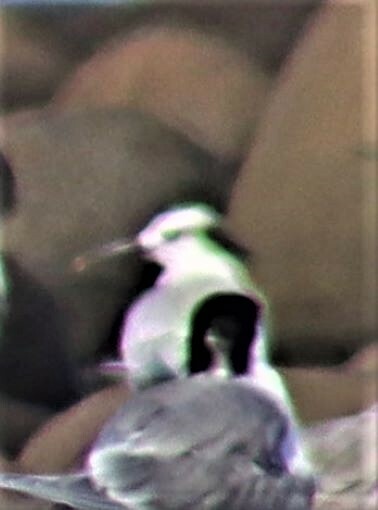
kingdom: Animalia
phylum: Chordata
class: Aves
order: Charadriiformes
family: Laridae
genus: Thalasseus
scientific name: Thalasseus sandvicensis
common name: Sandwich tern
